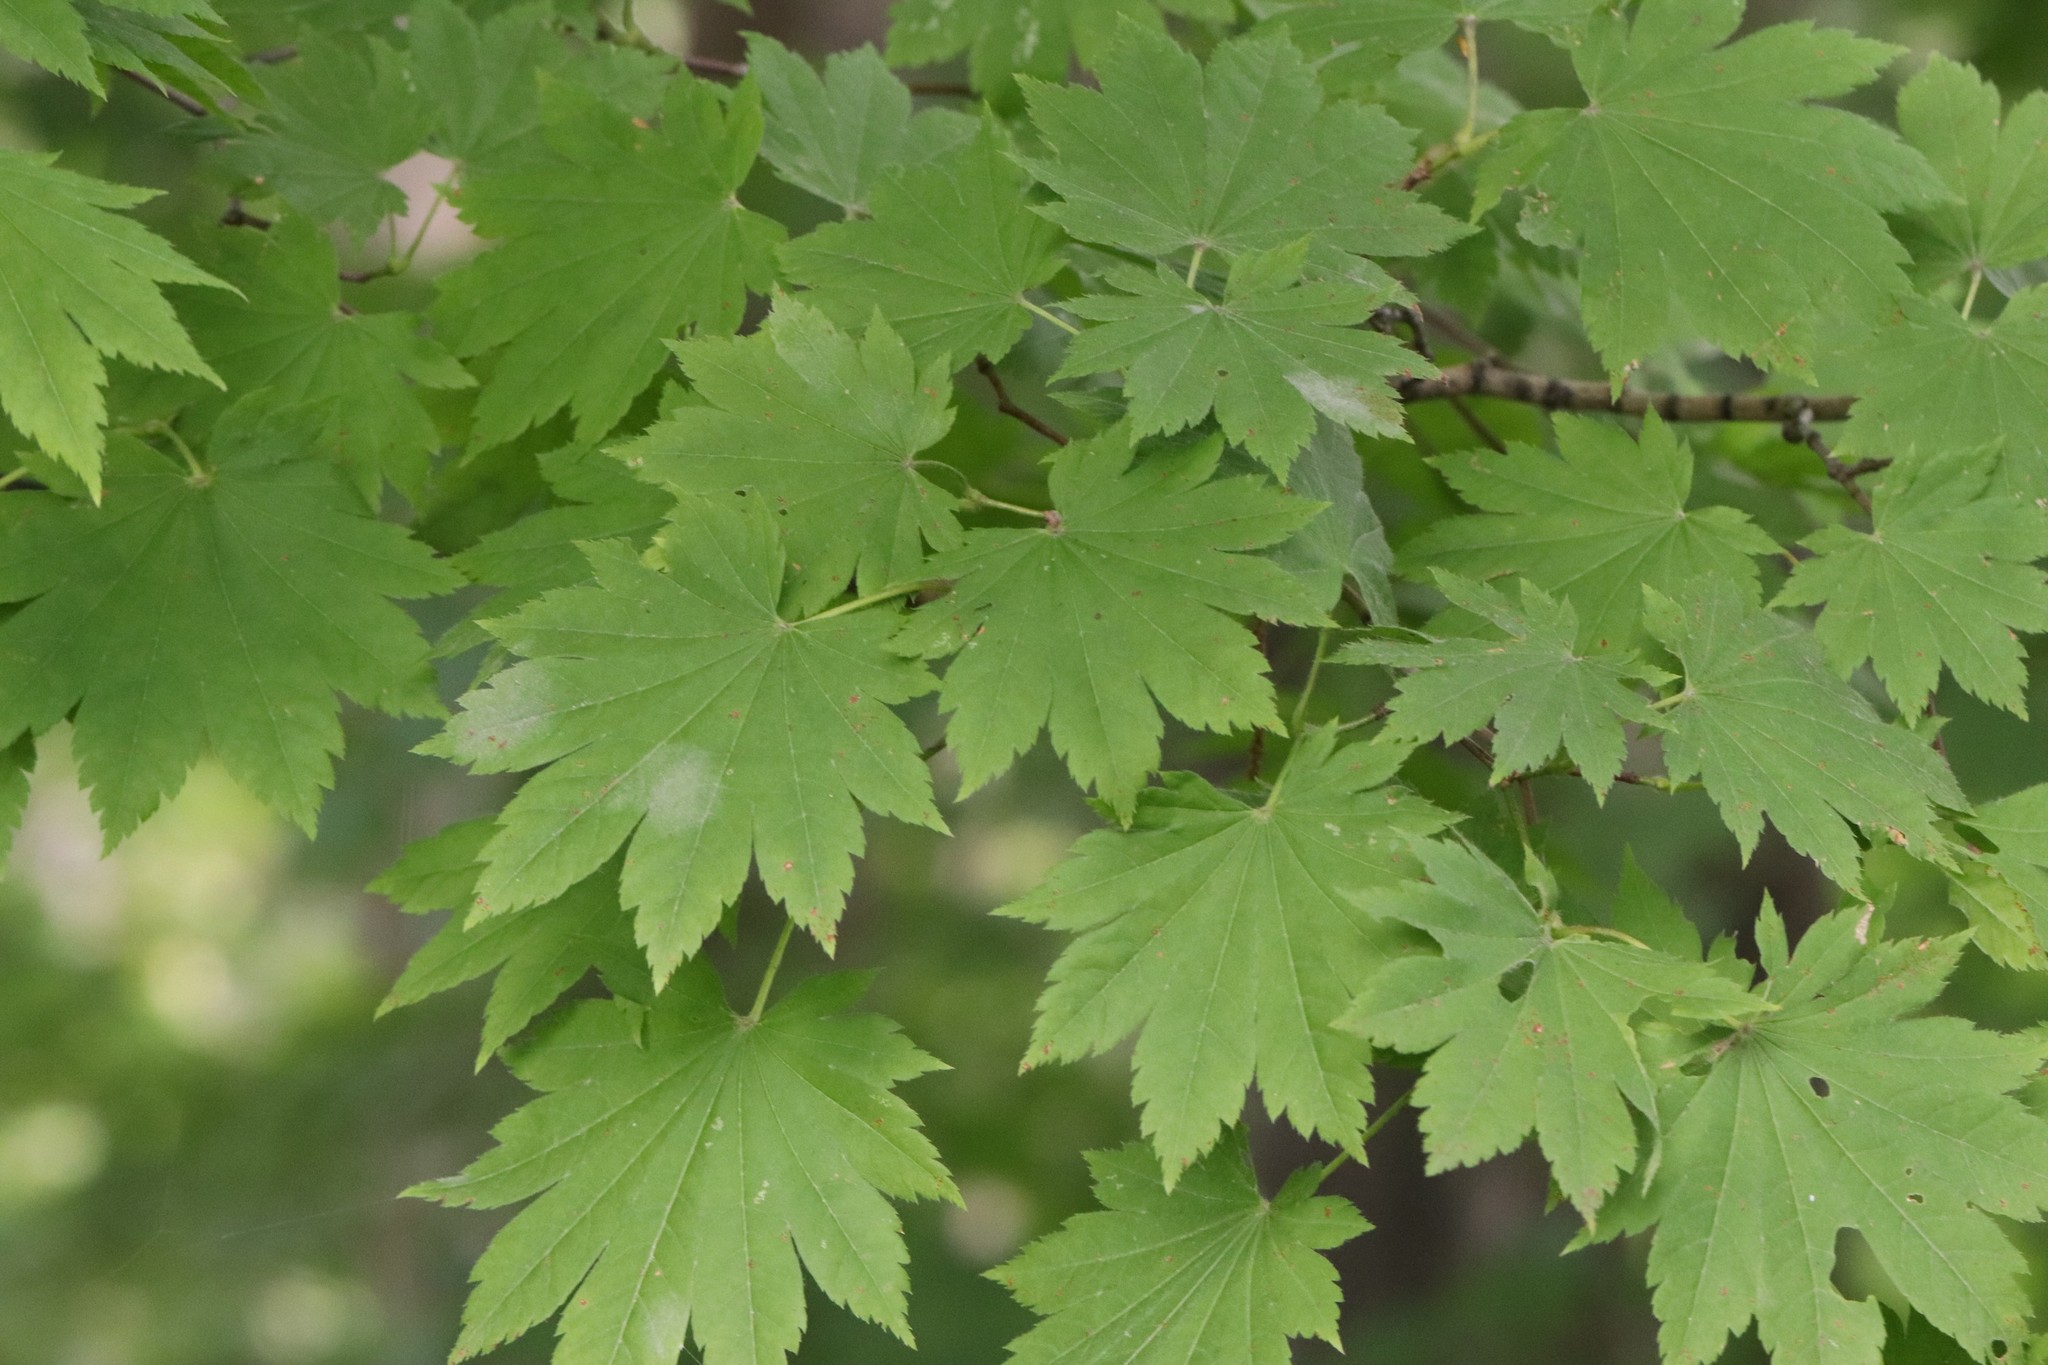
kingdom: Plantae
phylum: Tracheophyta
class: Magnoliopsida
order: Sapindales
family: Sapindaceae
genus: Acer
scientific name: Acer pseudosieboldianum
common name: Korean maple
